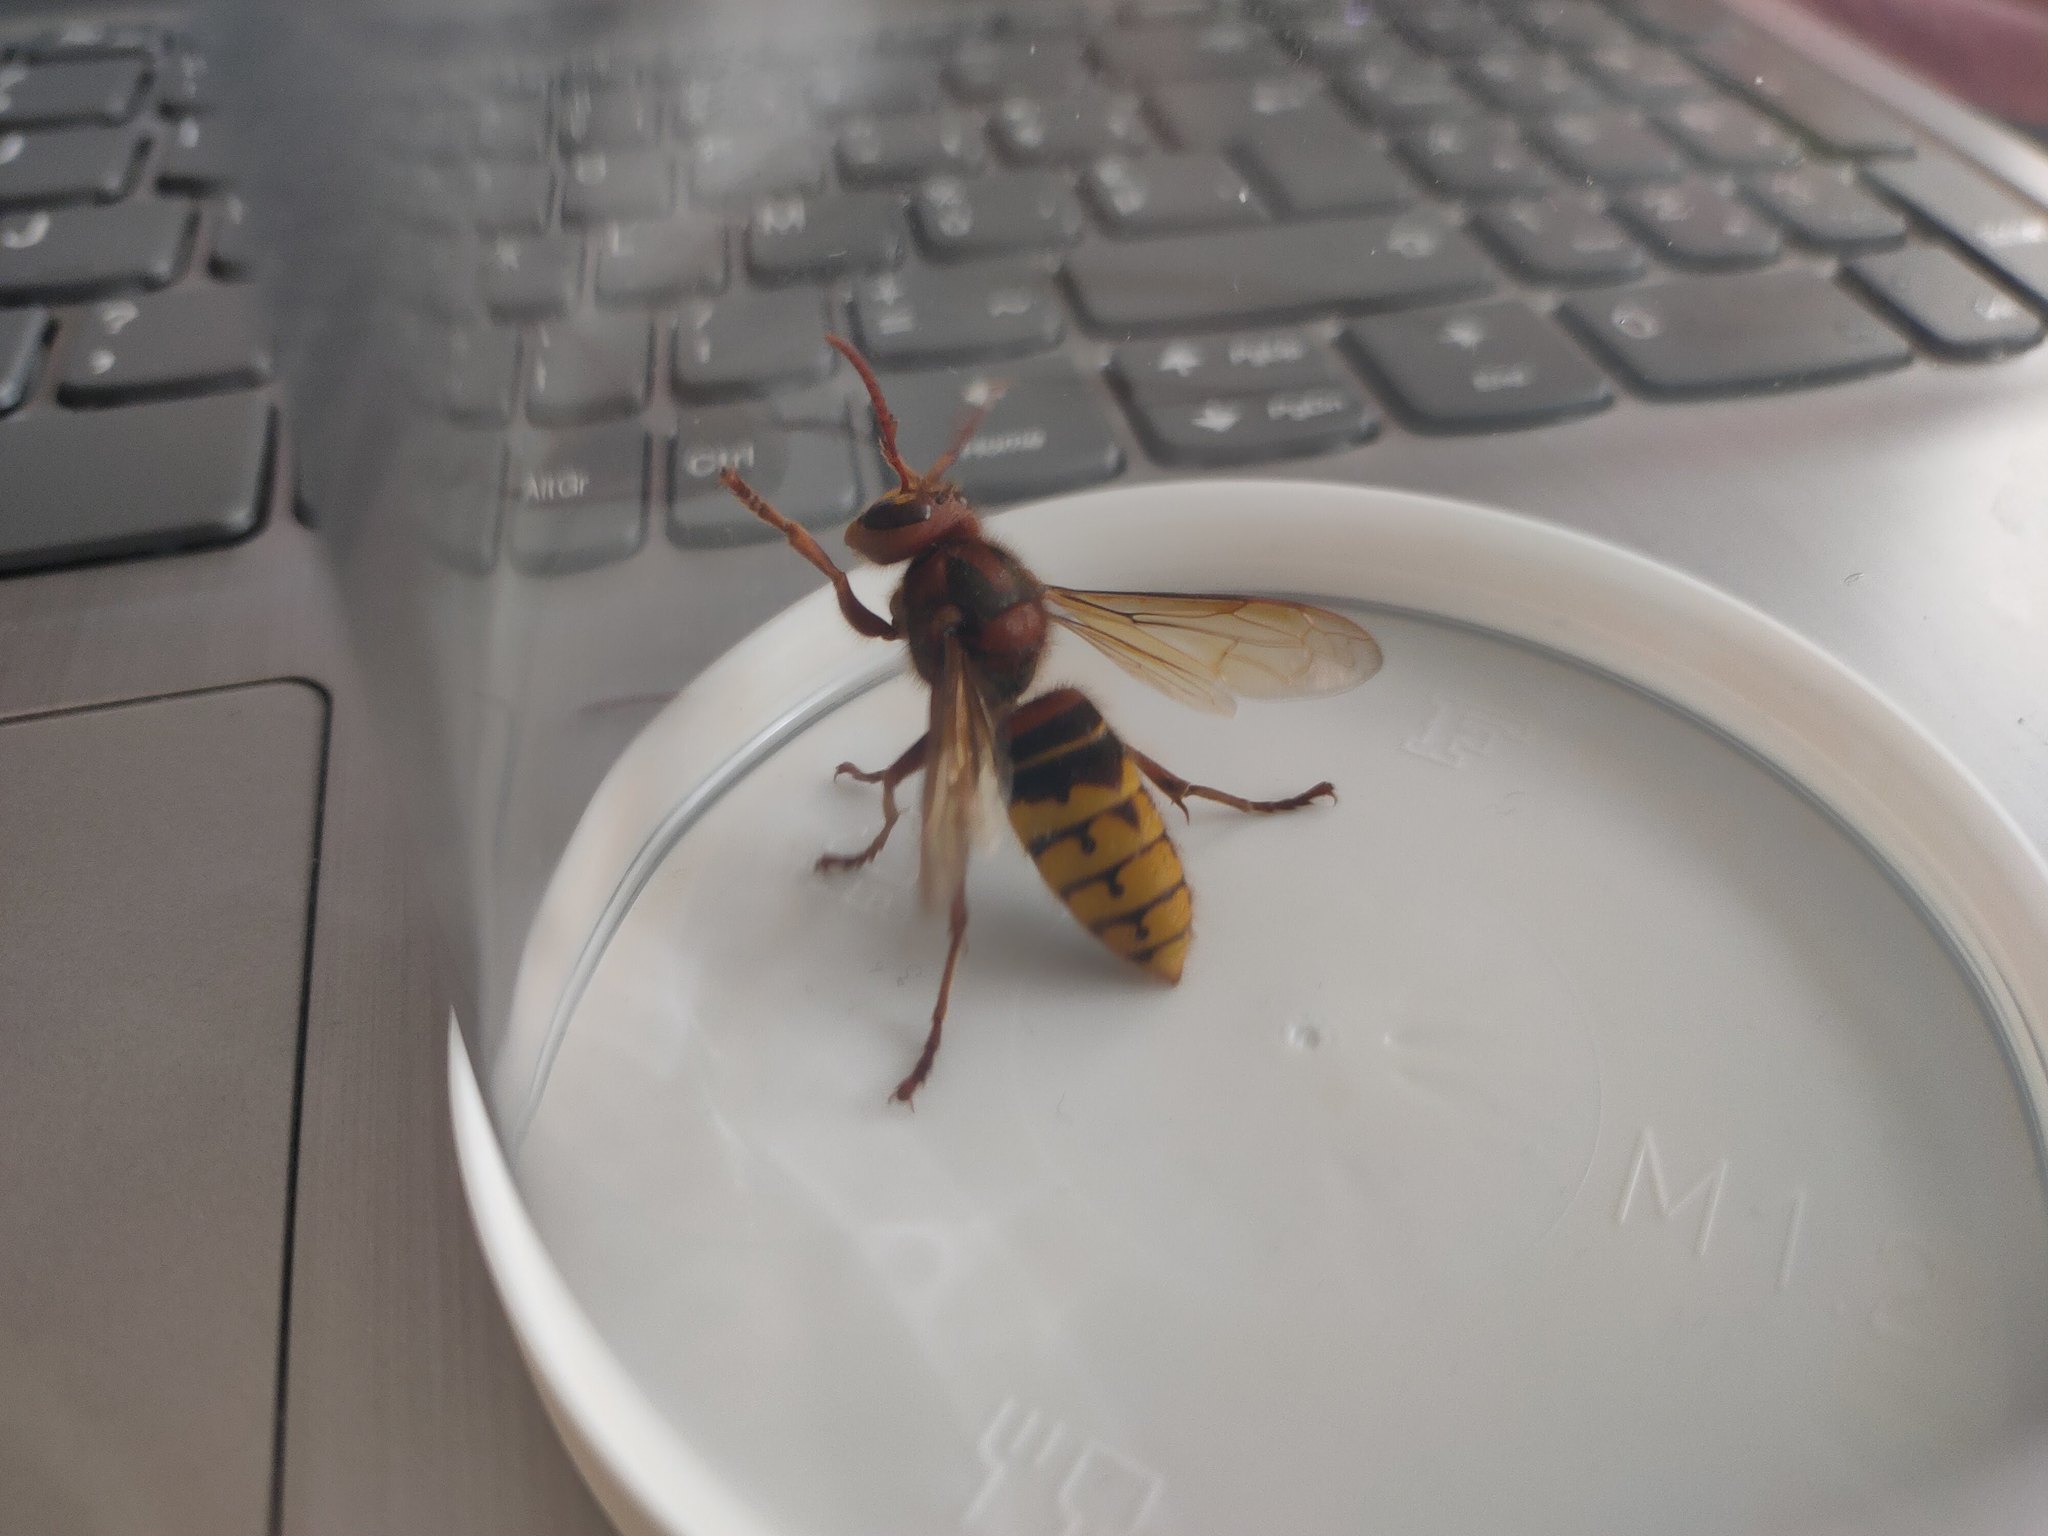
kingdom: Animalia
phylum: Arthropoda
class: Insecta
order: Hymenoptera
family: Vespidae
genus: Vespa
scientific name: Vespa crabro
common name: Hornet
